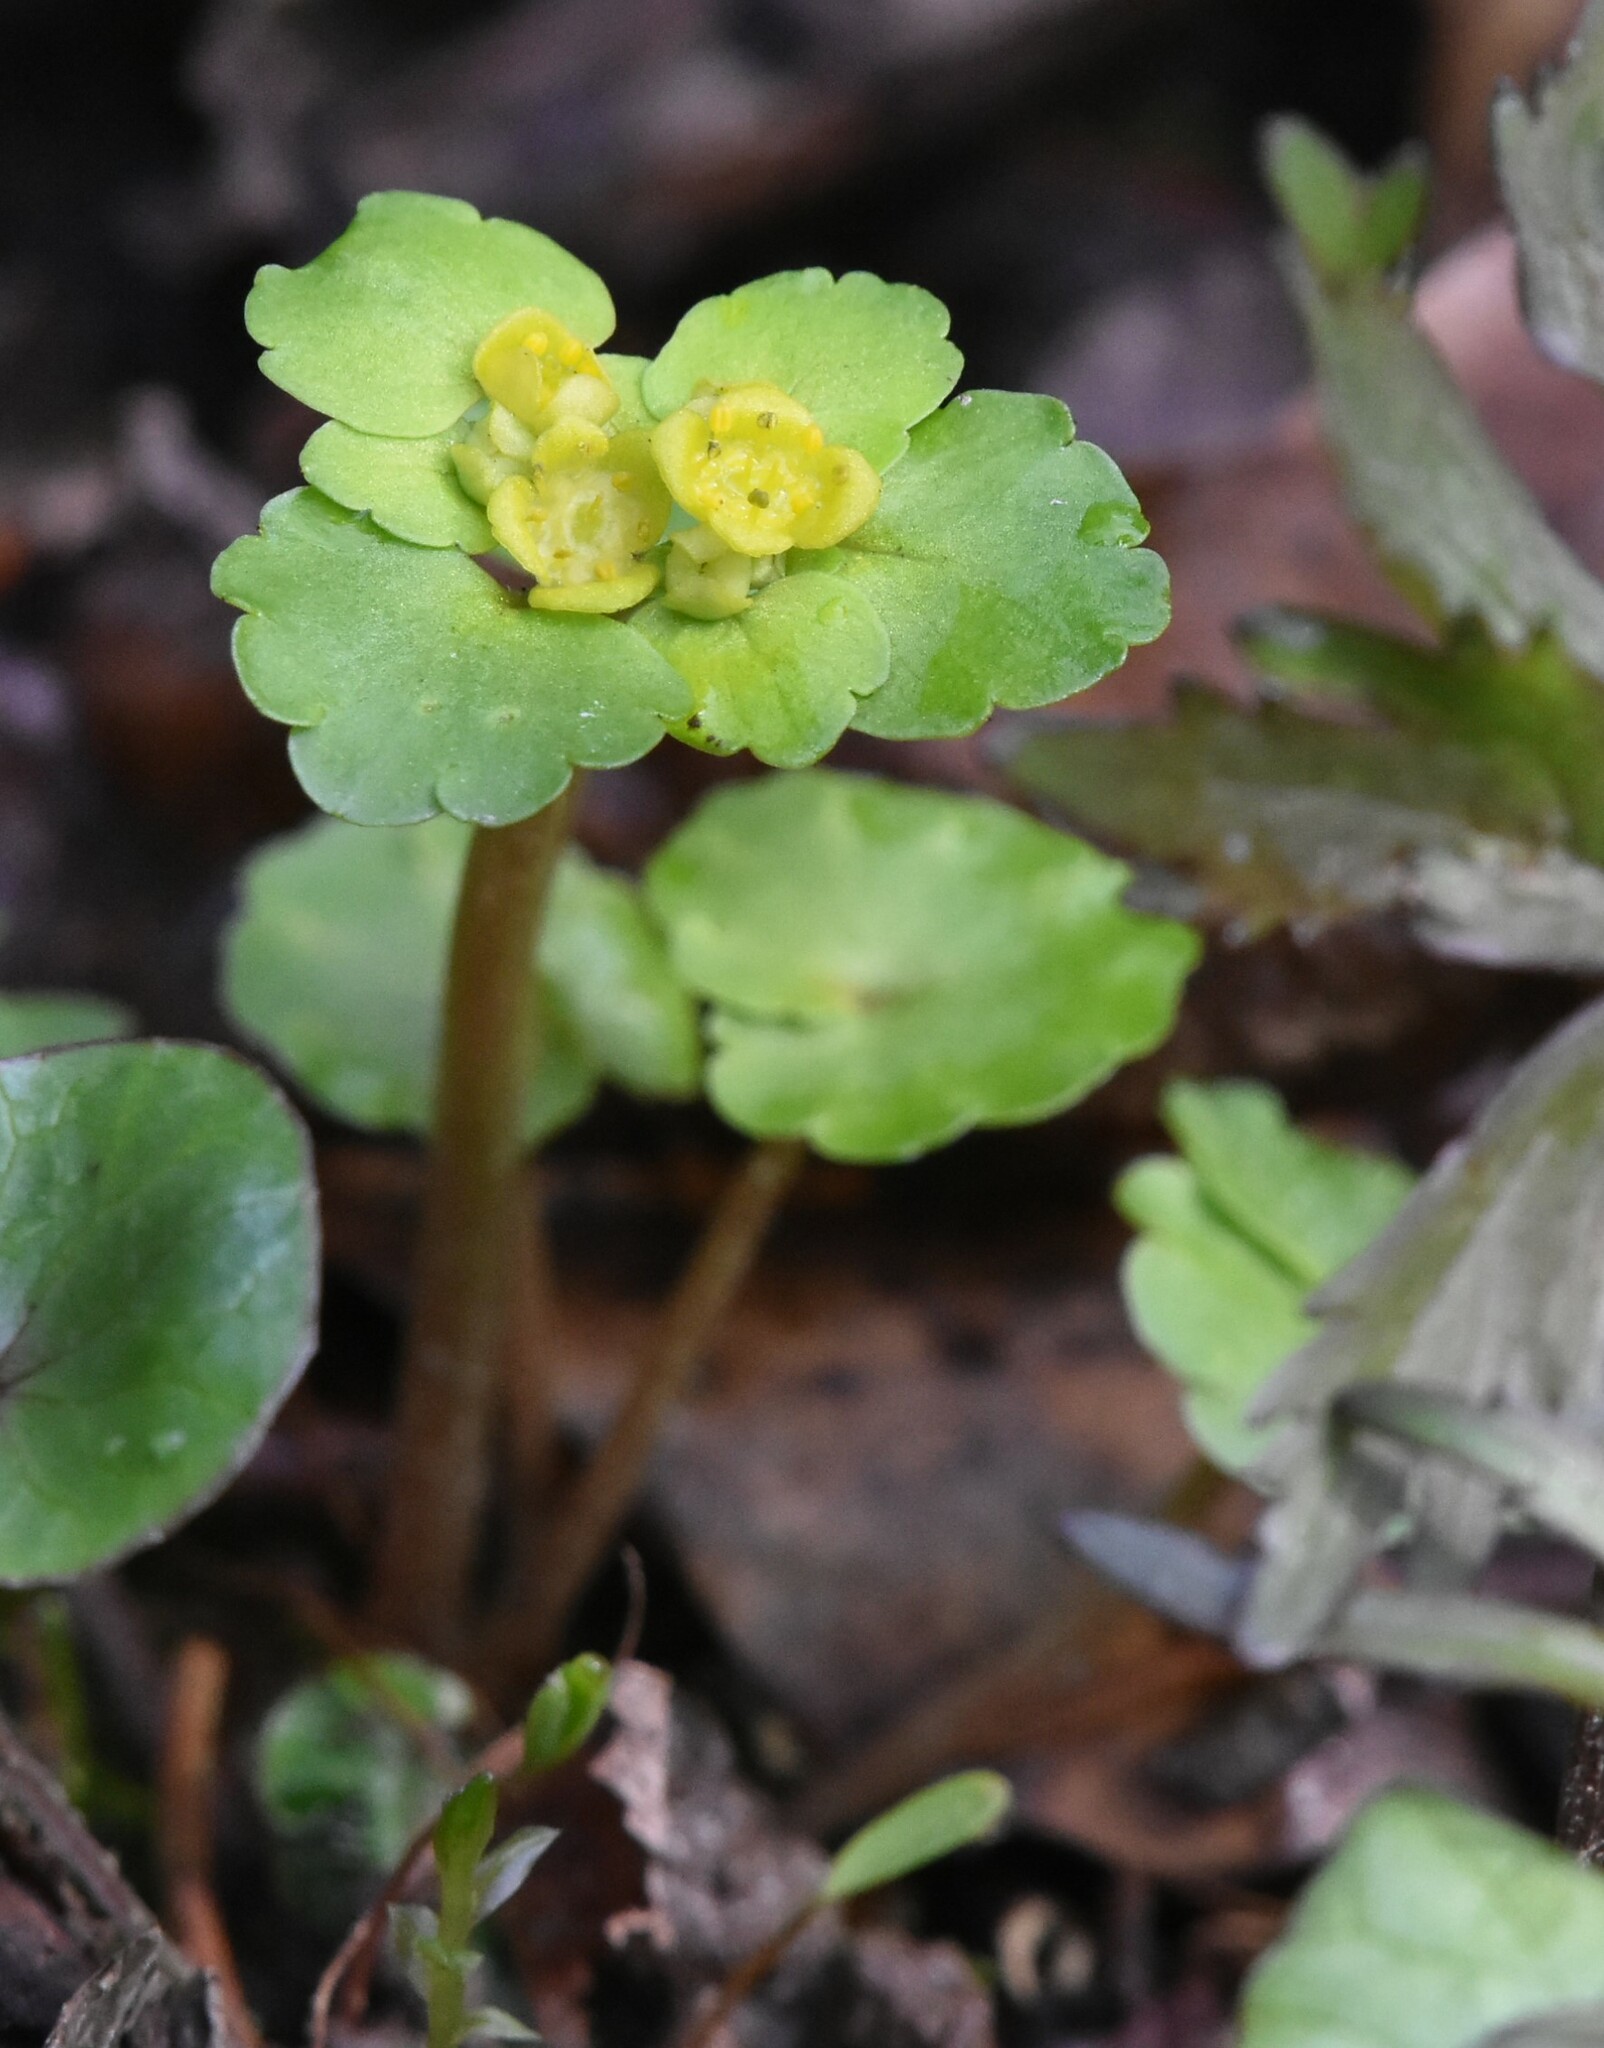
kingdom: Plantae
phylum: Tracheophyta
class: Magnoliopsida
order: Saxifragales
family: Saxifragaceae
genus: Chrysosplenium
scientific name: Chrysosplenium alternifolium
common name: Alternate-leaved golden-saxifrage
